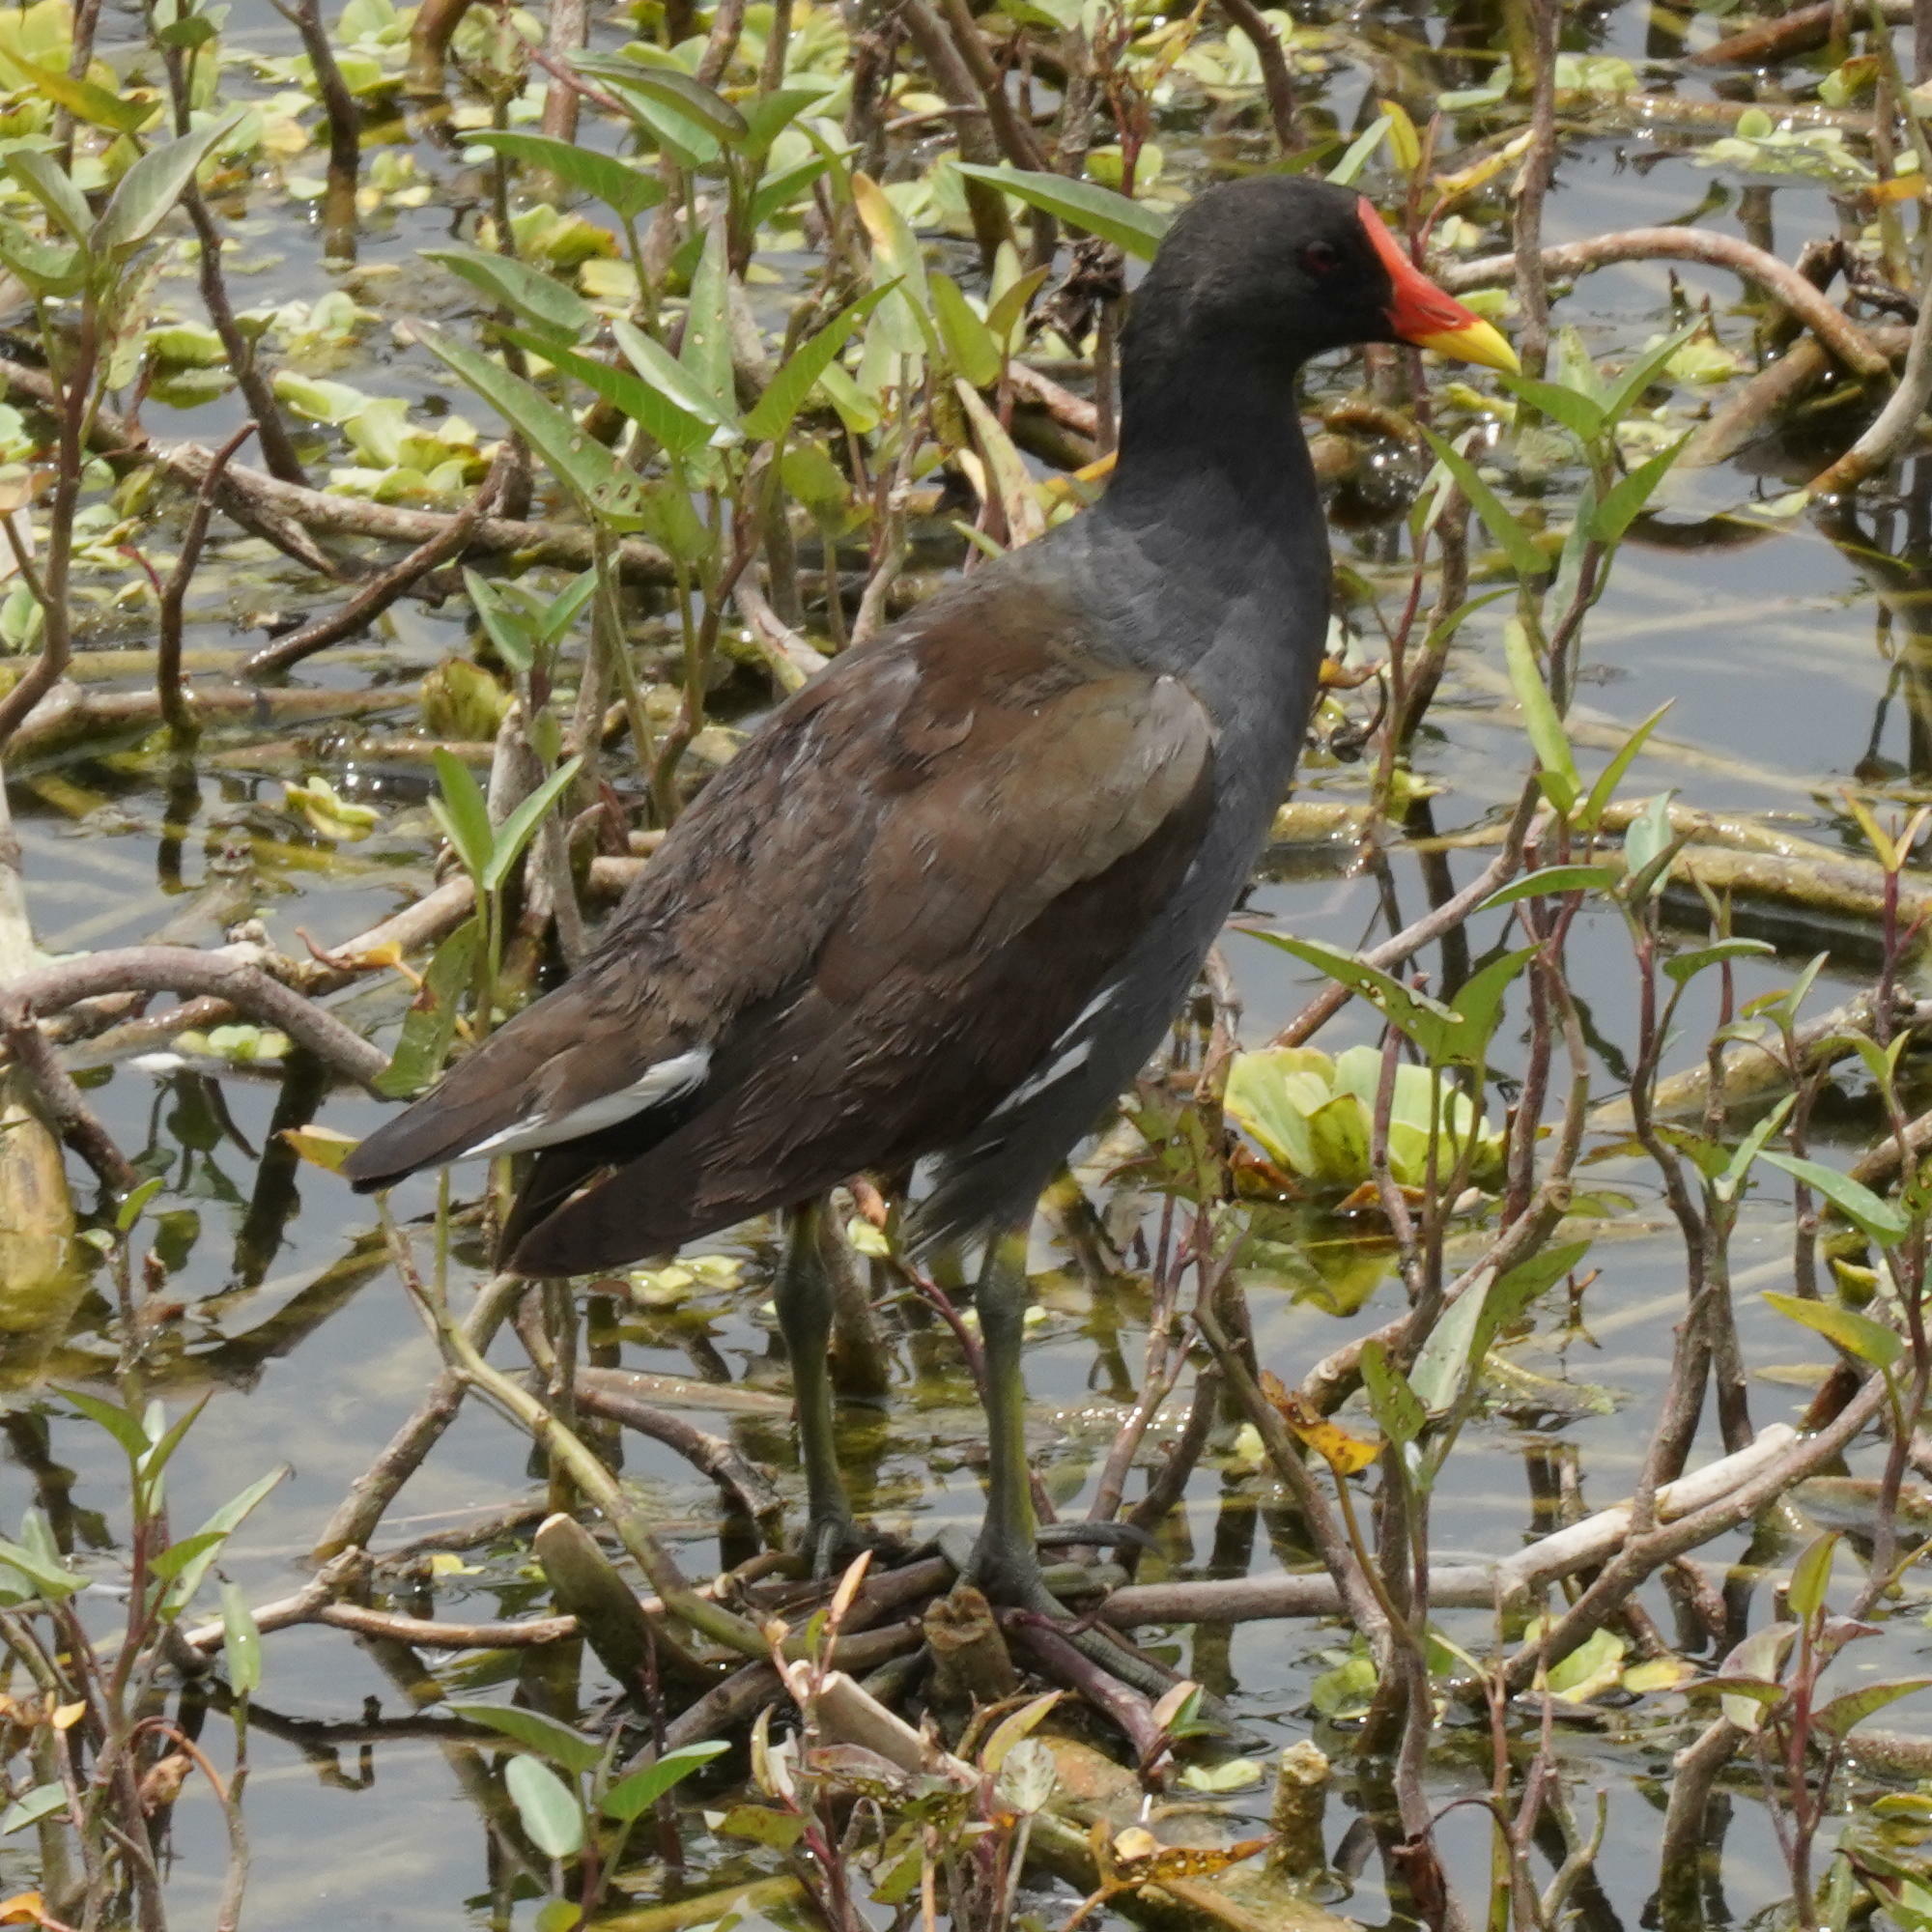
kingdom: Animalia
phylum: Chordata
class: Aves
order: Gruiformes
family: Rallidae
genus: Gallinula
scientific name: Gallinula chloropus
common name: Common moorhen
